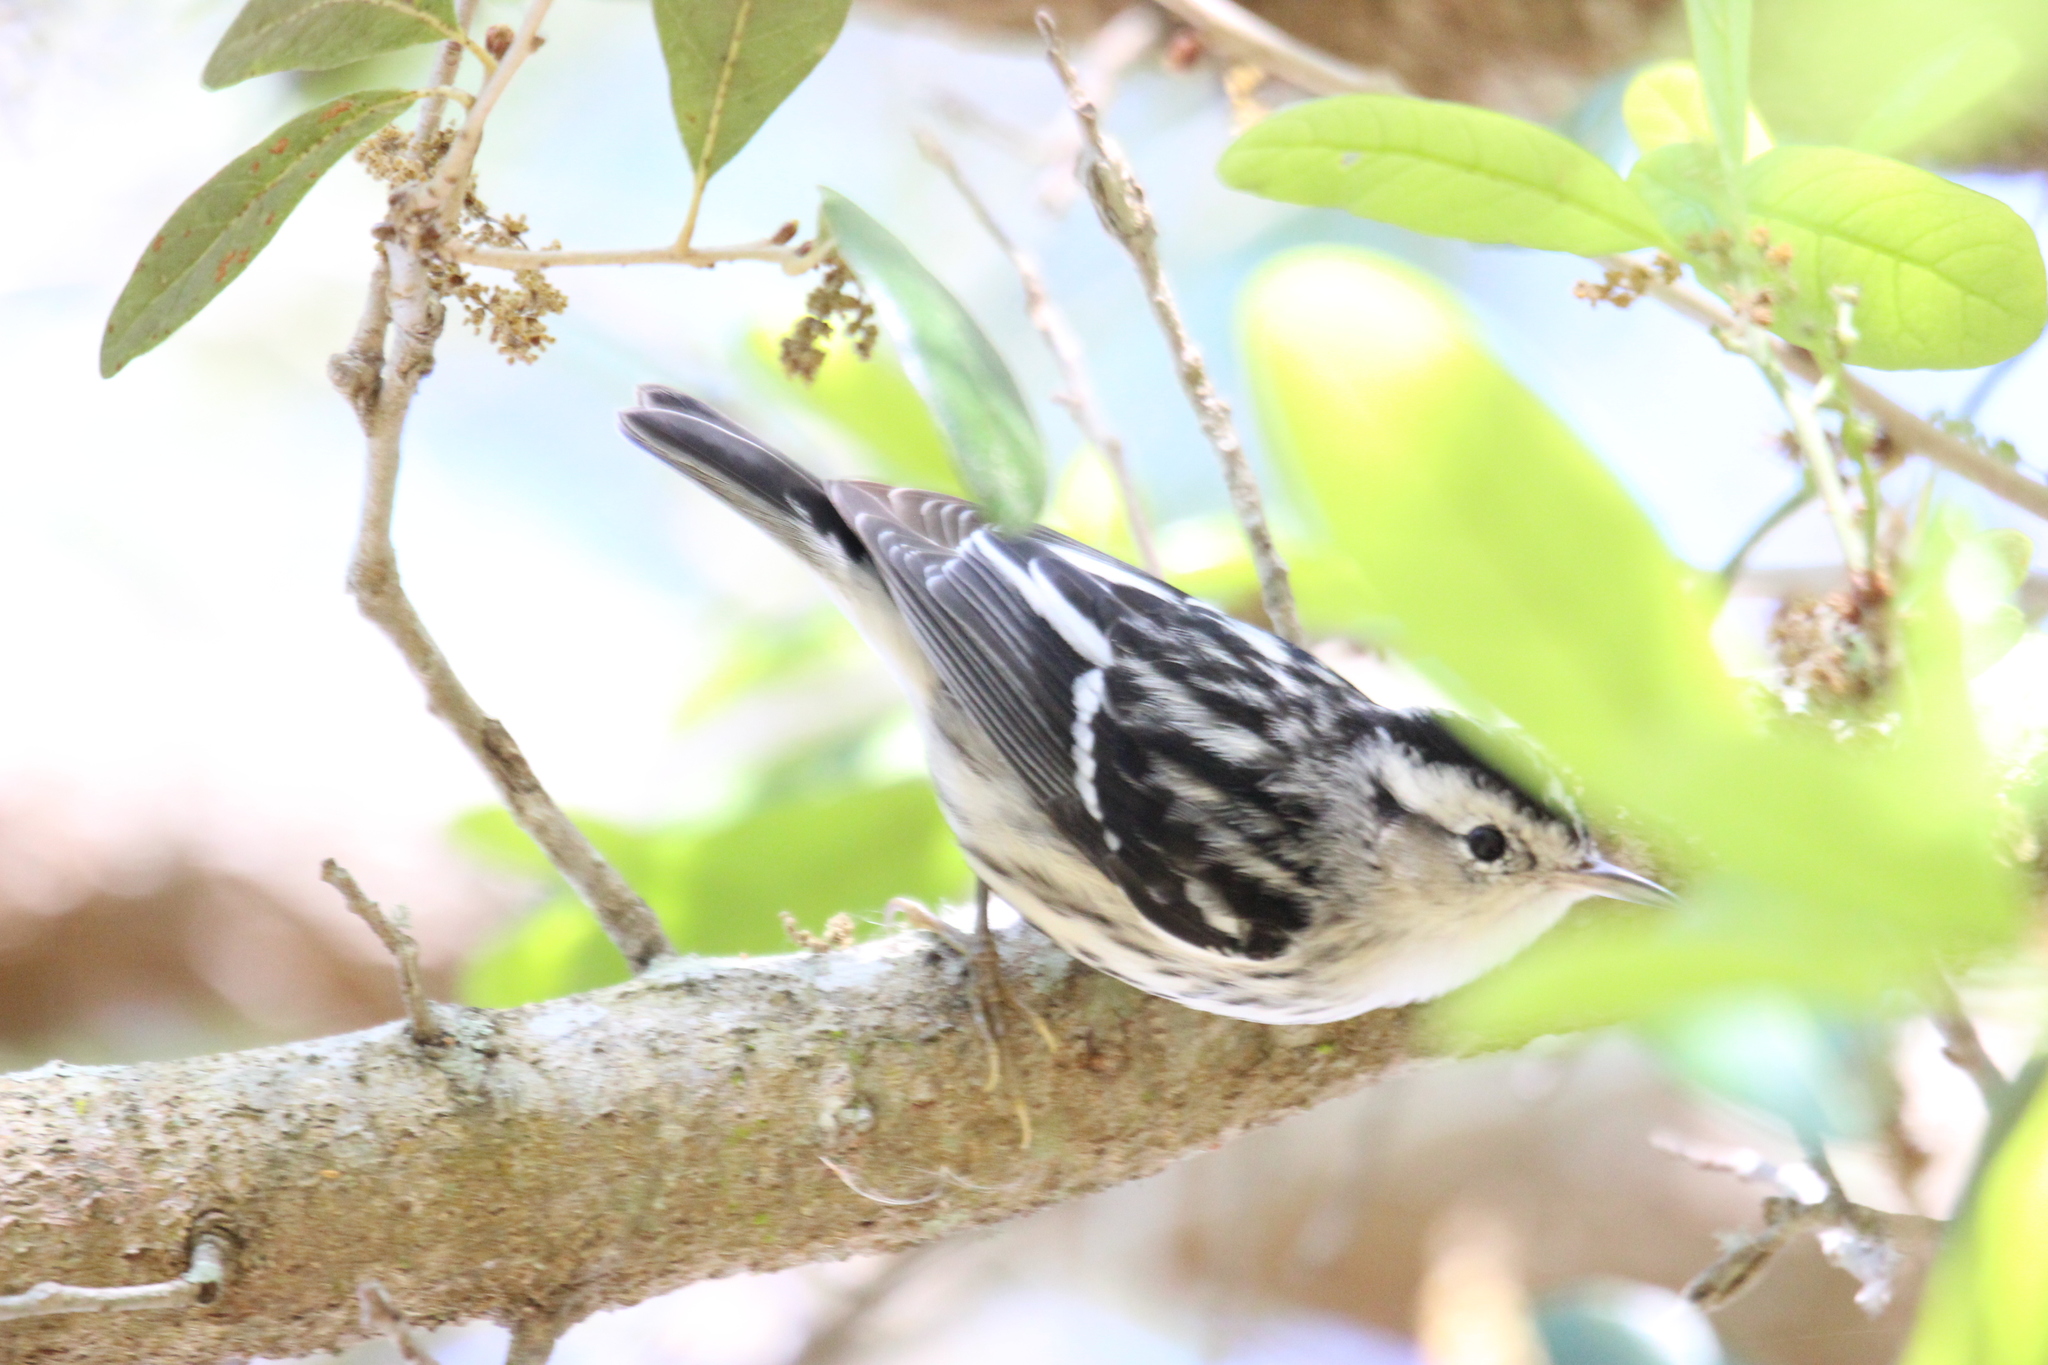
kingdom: Animalia
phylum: Chordata
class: Aves
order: Passeriformes
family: Parulidae
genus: Mniotilta
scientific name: Mniotilta varia
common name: Black-and-white warbler
